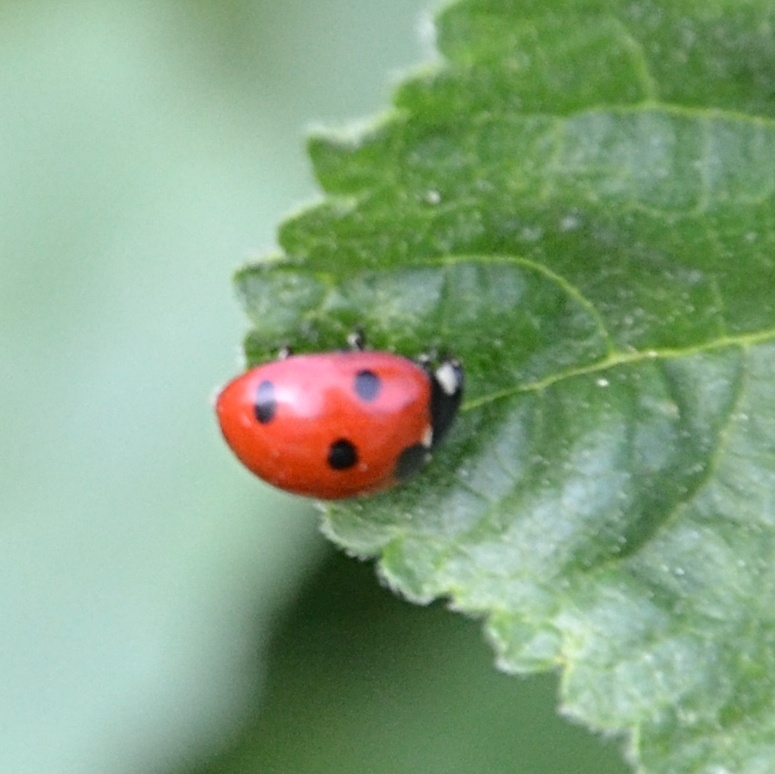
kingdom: Animalia
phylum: Arthropoda
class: Insecta
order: Coleoptera
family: Coccinellidae
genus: Coccinella
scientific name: Coccinella septempunctata
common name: Sevenspotted lady beetle
